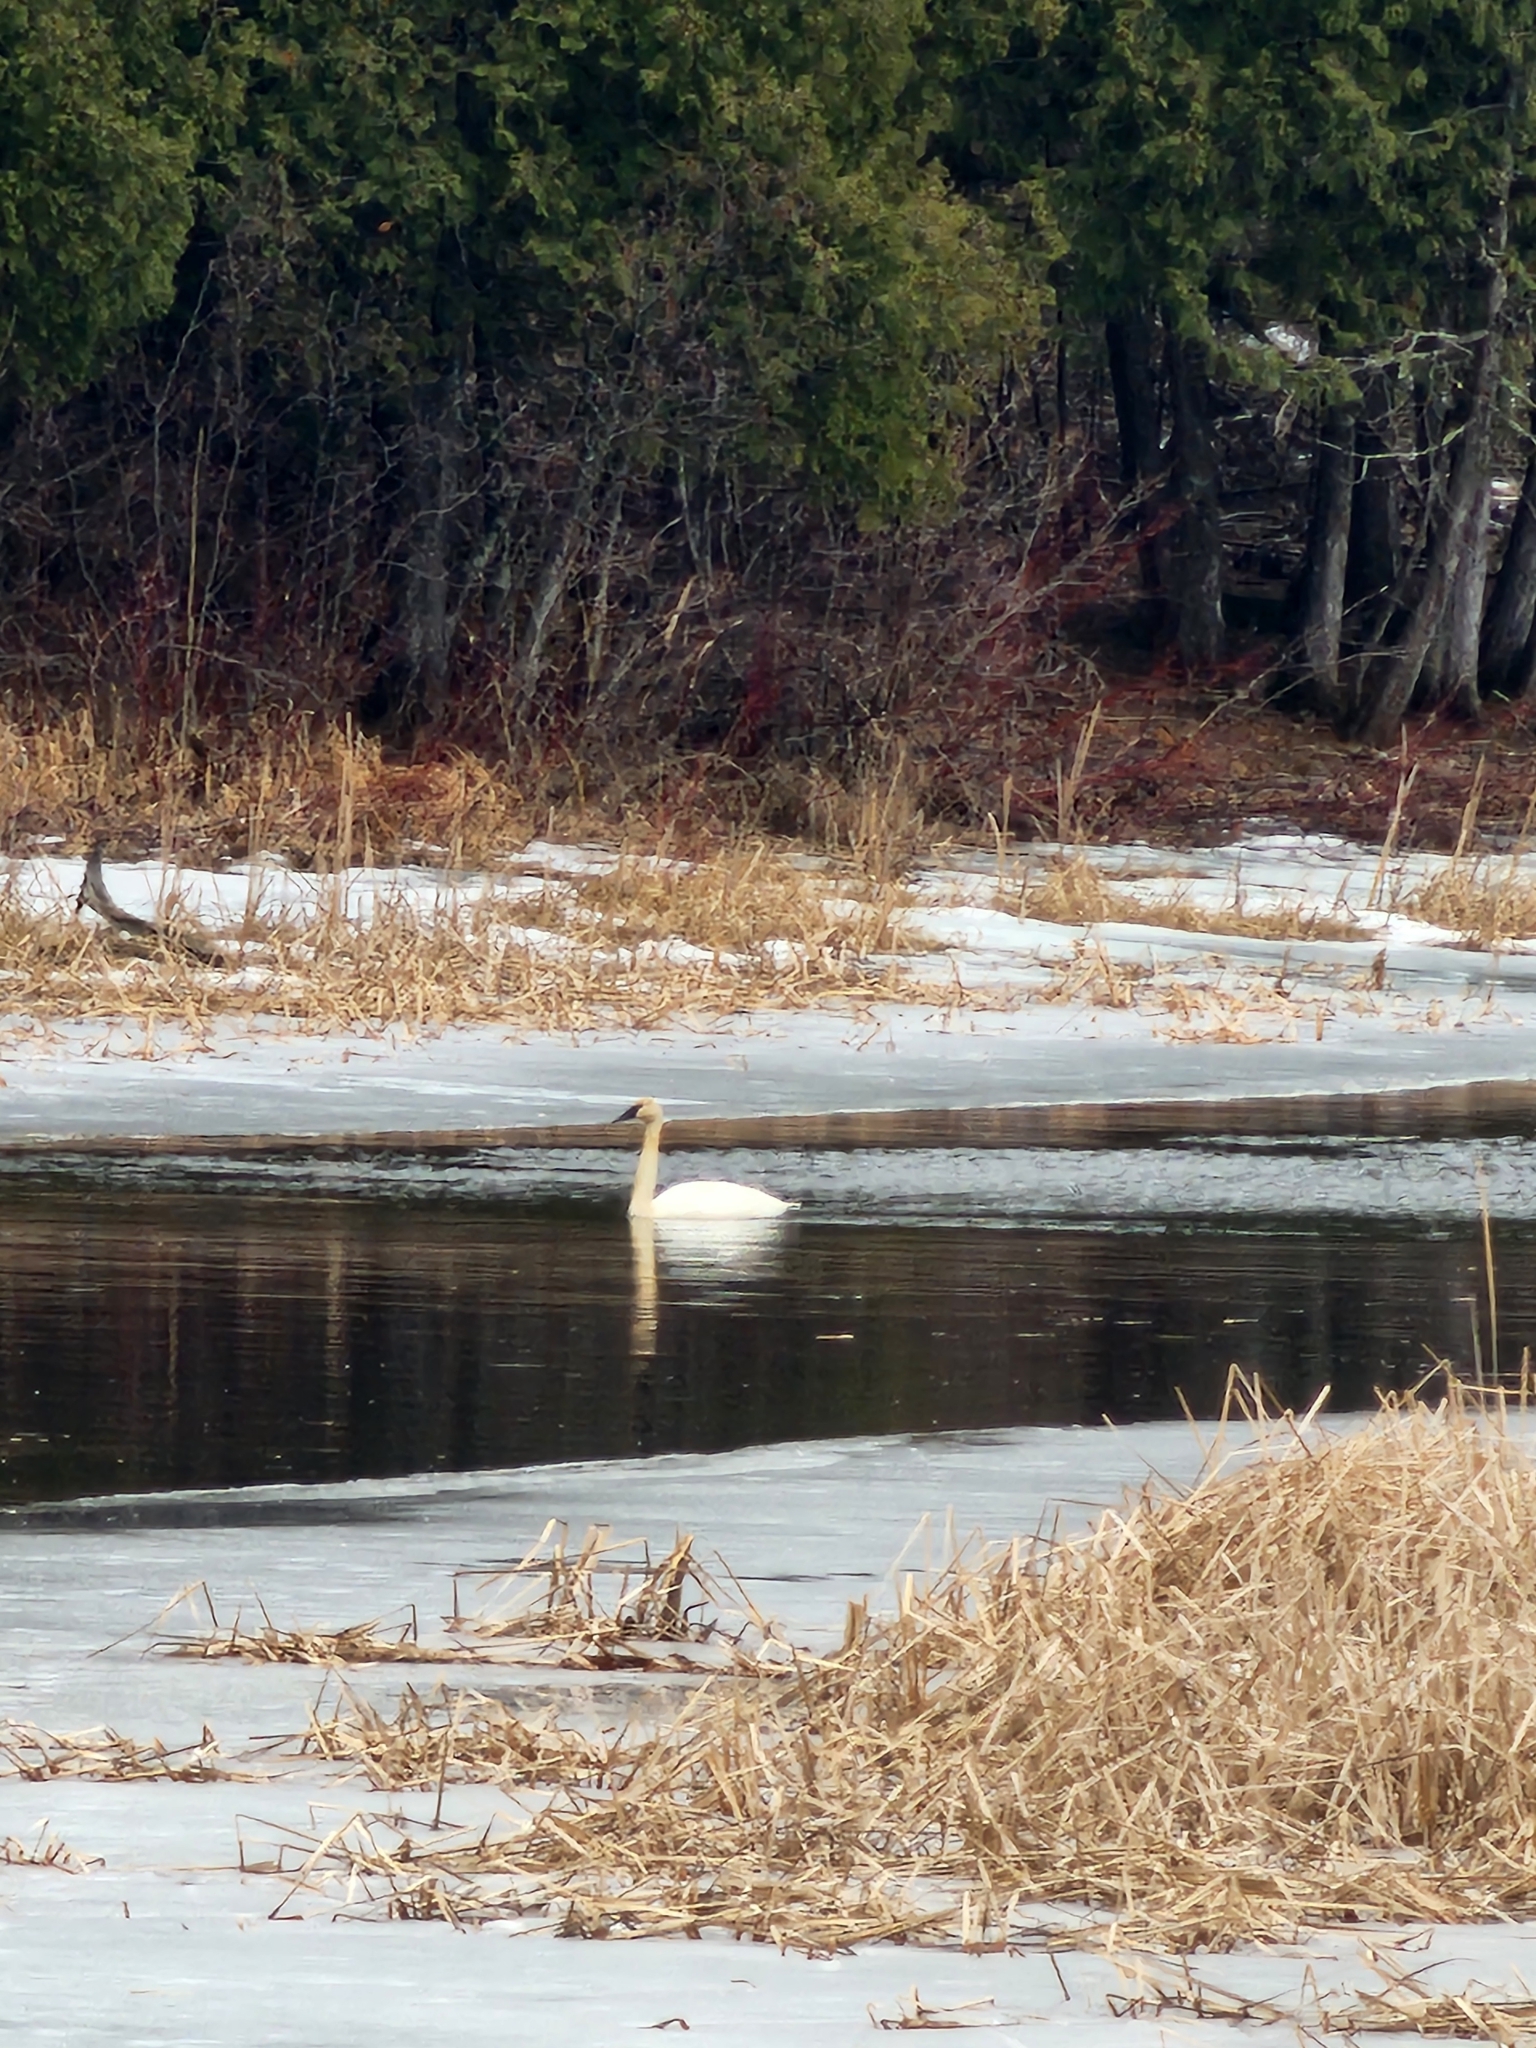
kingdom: Animalia
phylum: Chordata
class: Aves
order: Anseriformes
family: Anatidae
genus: Cygnus
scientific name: Cygnus buccinator
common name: Trumpeter swan
